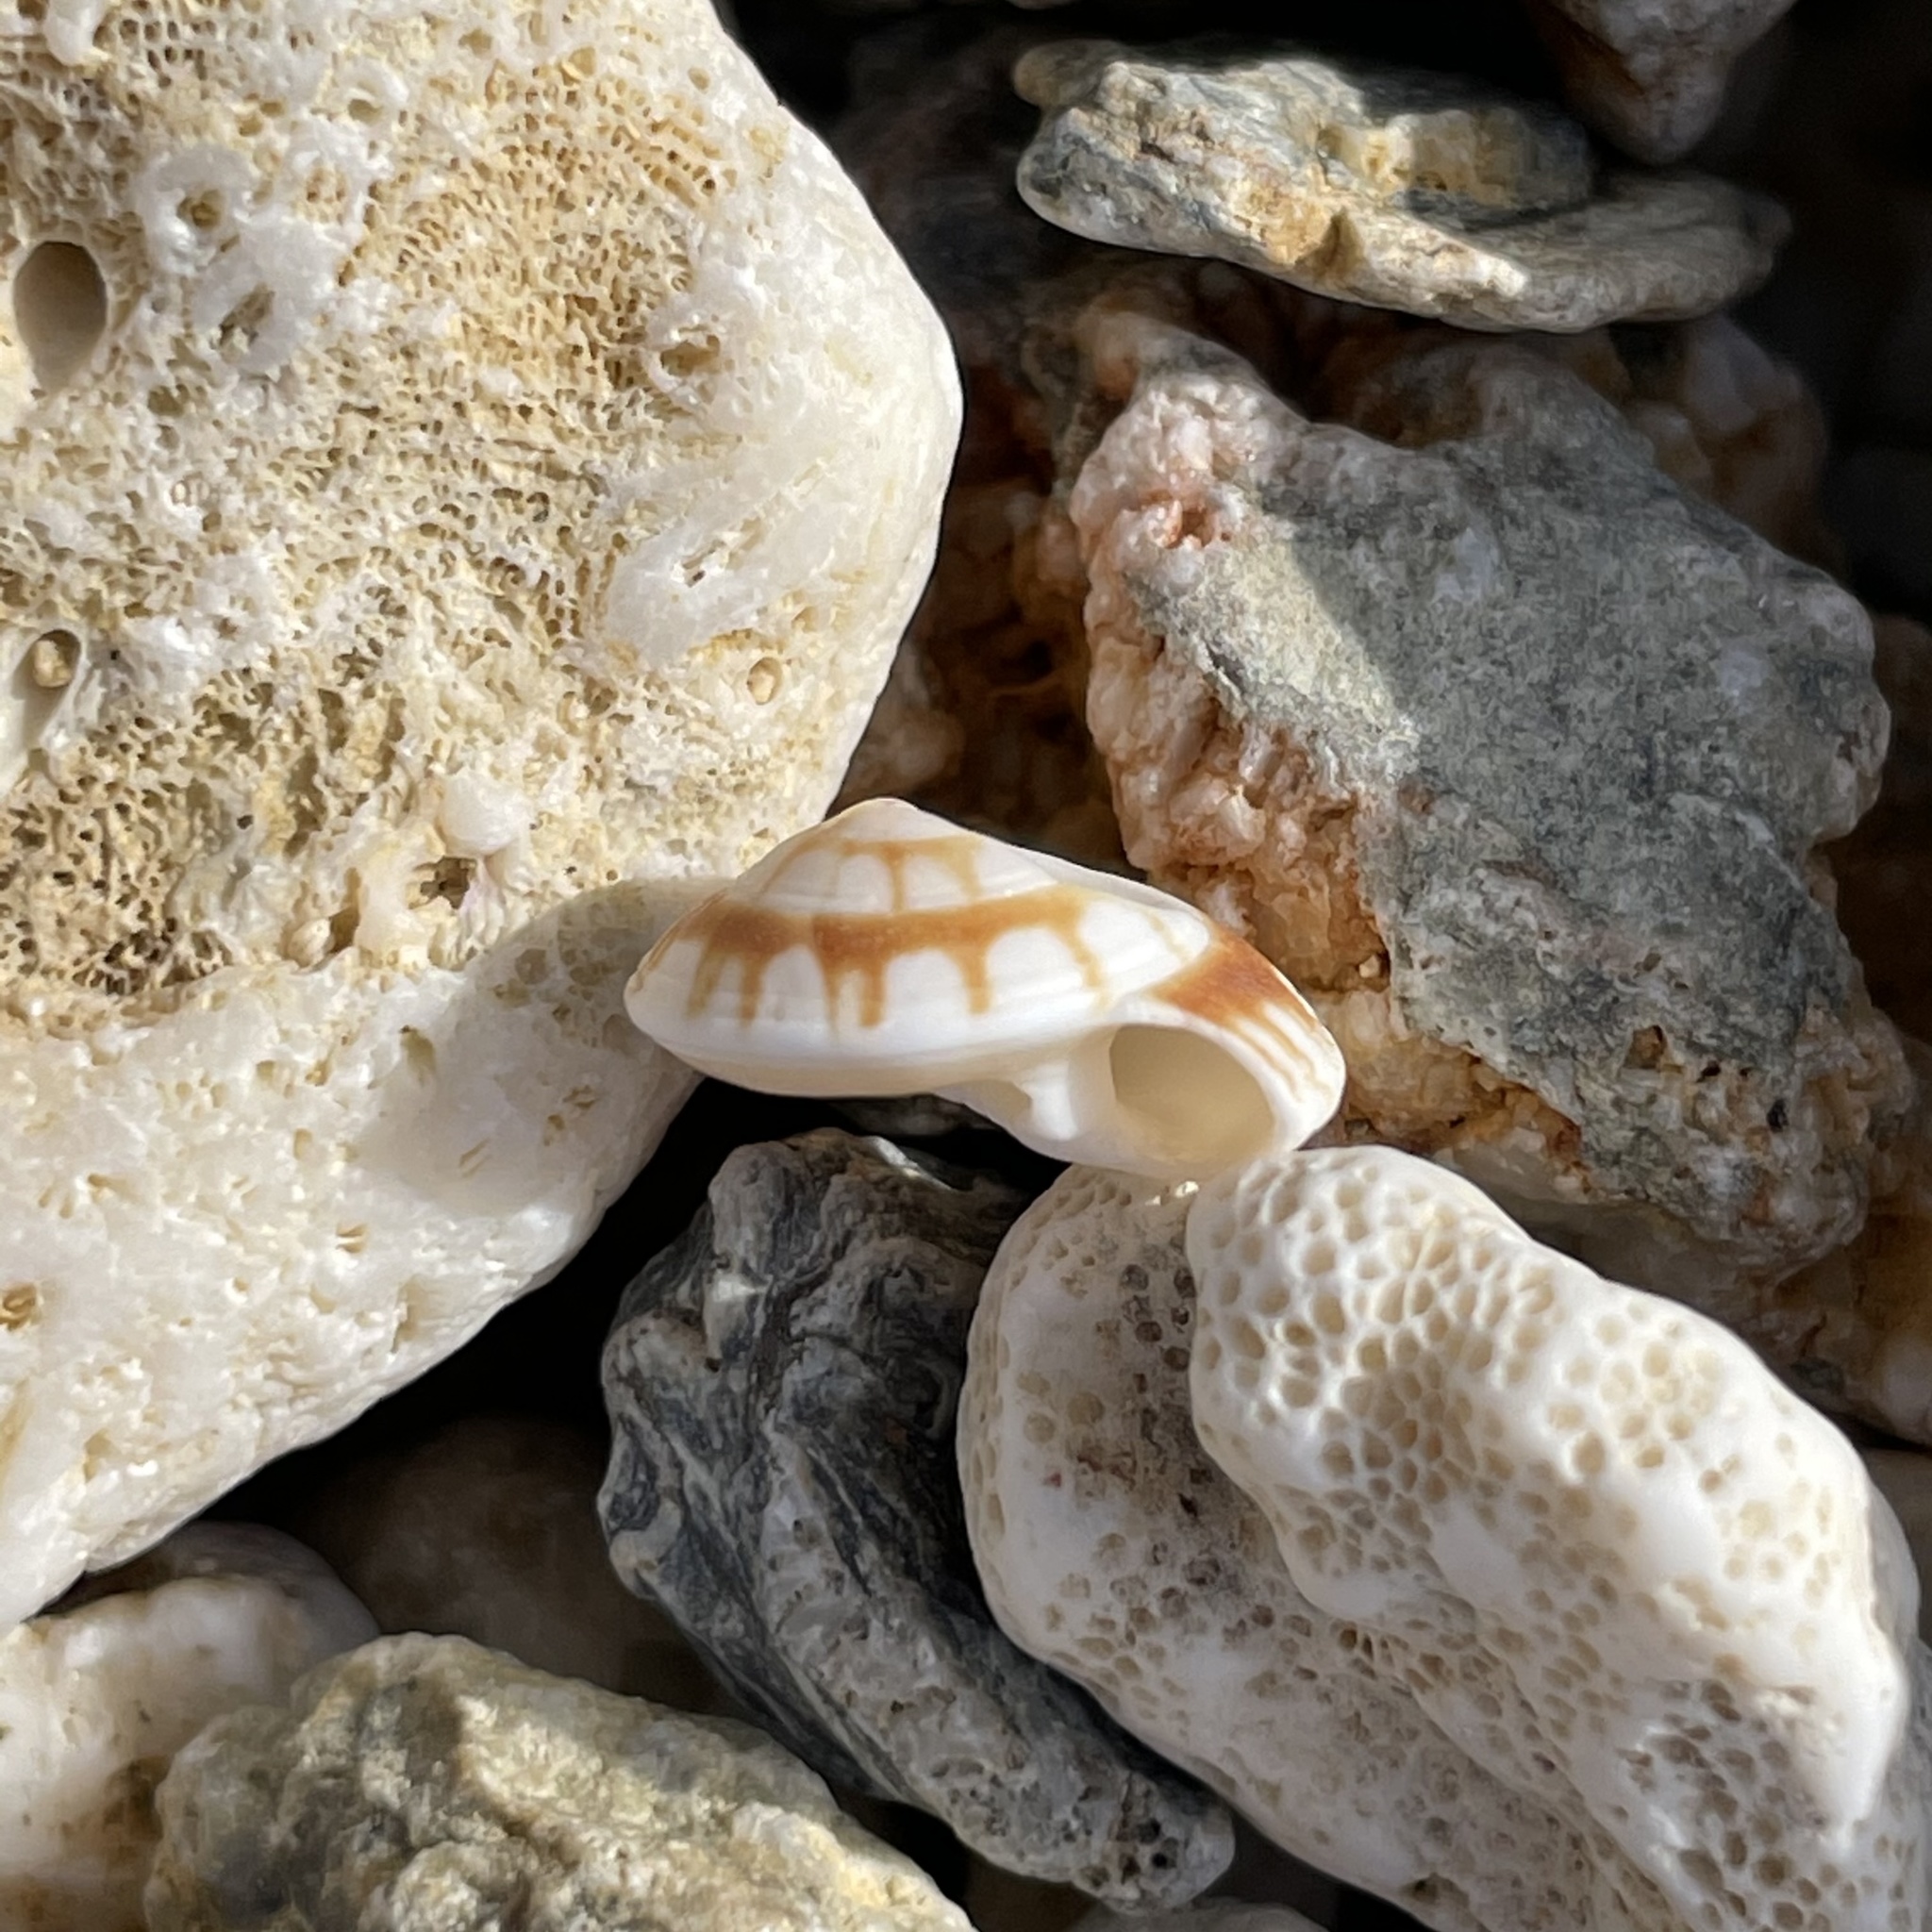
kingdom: Animalia
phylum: Mollusca
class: Gastropoda
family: Architectonicidae
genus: Psilaxis
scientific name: Psilaxis radiatus
